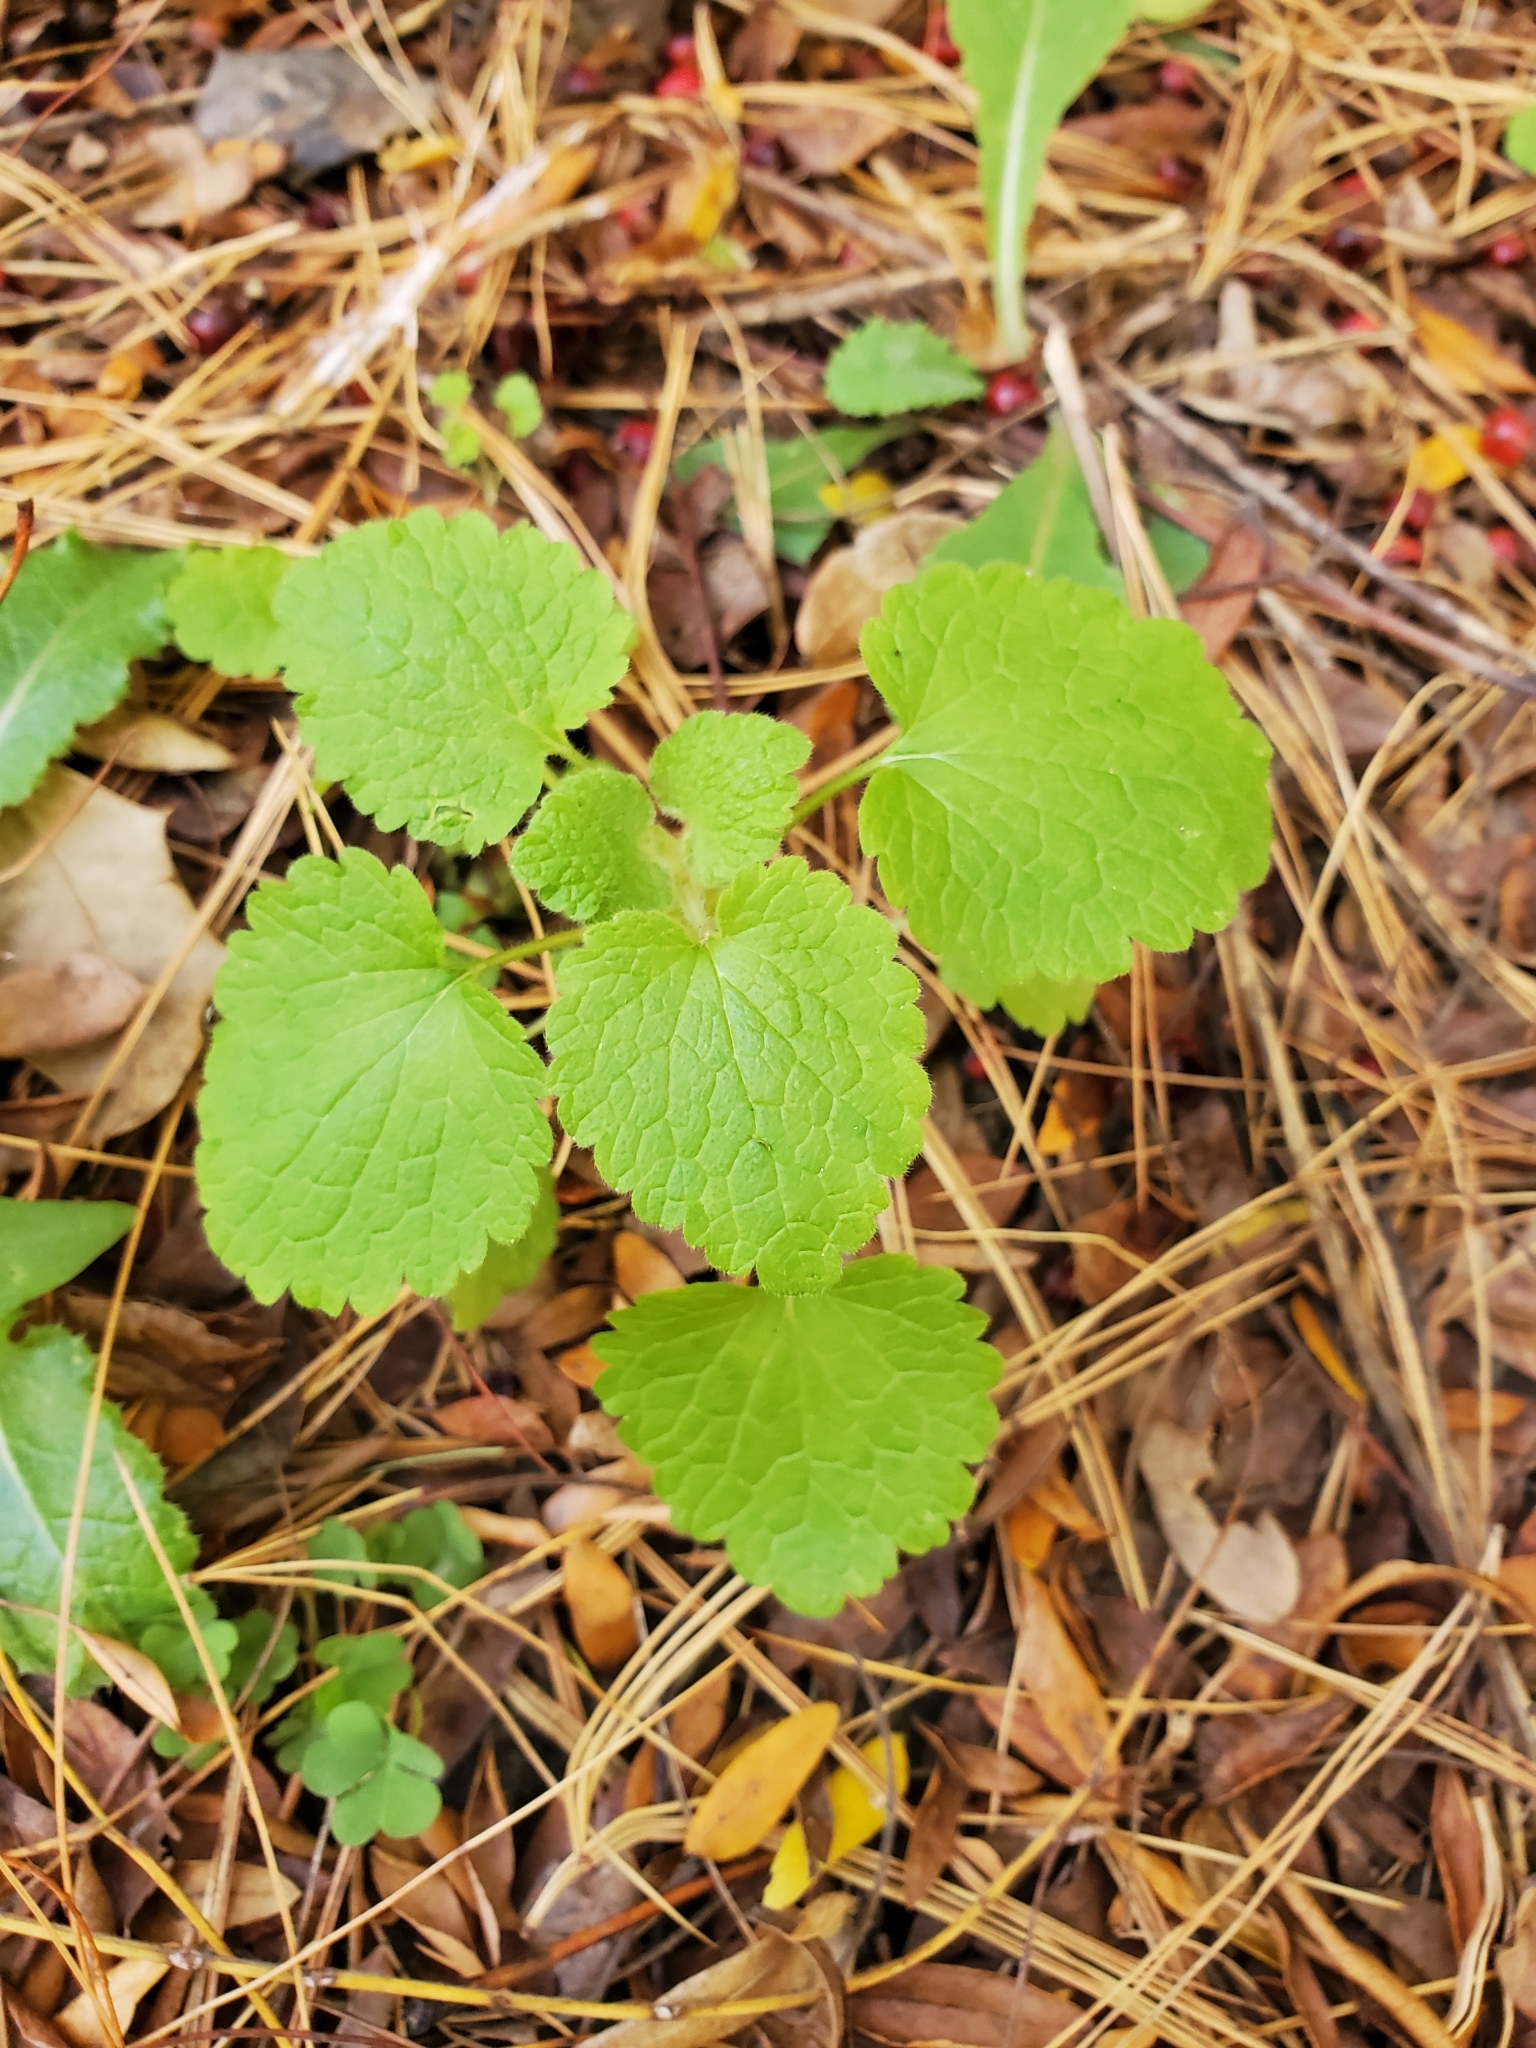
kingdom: Plantae
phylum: Tracheophyta
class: Magnoliopsida
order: Lamiales
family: Lamiaceae
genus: Lamium
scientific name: Lamium purpureum
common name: Red dead-nettle
